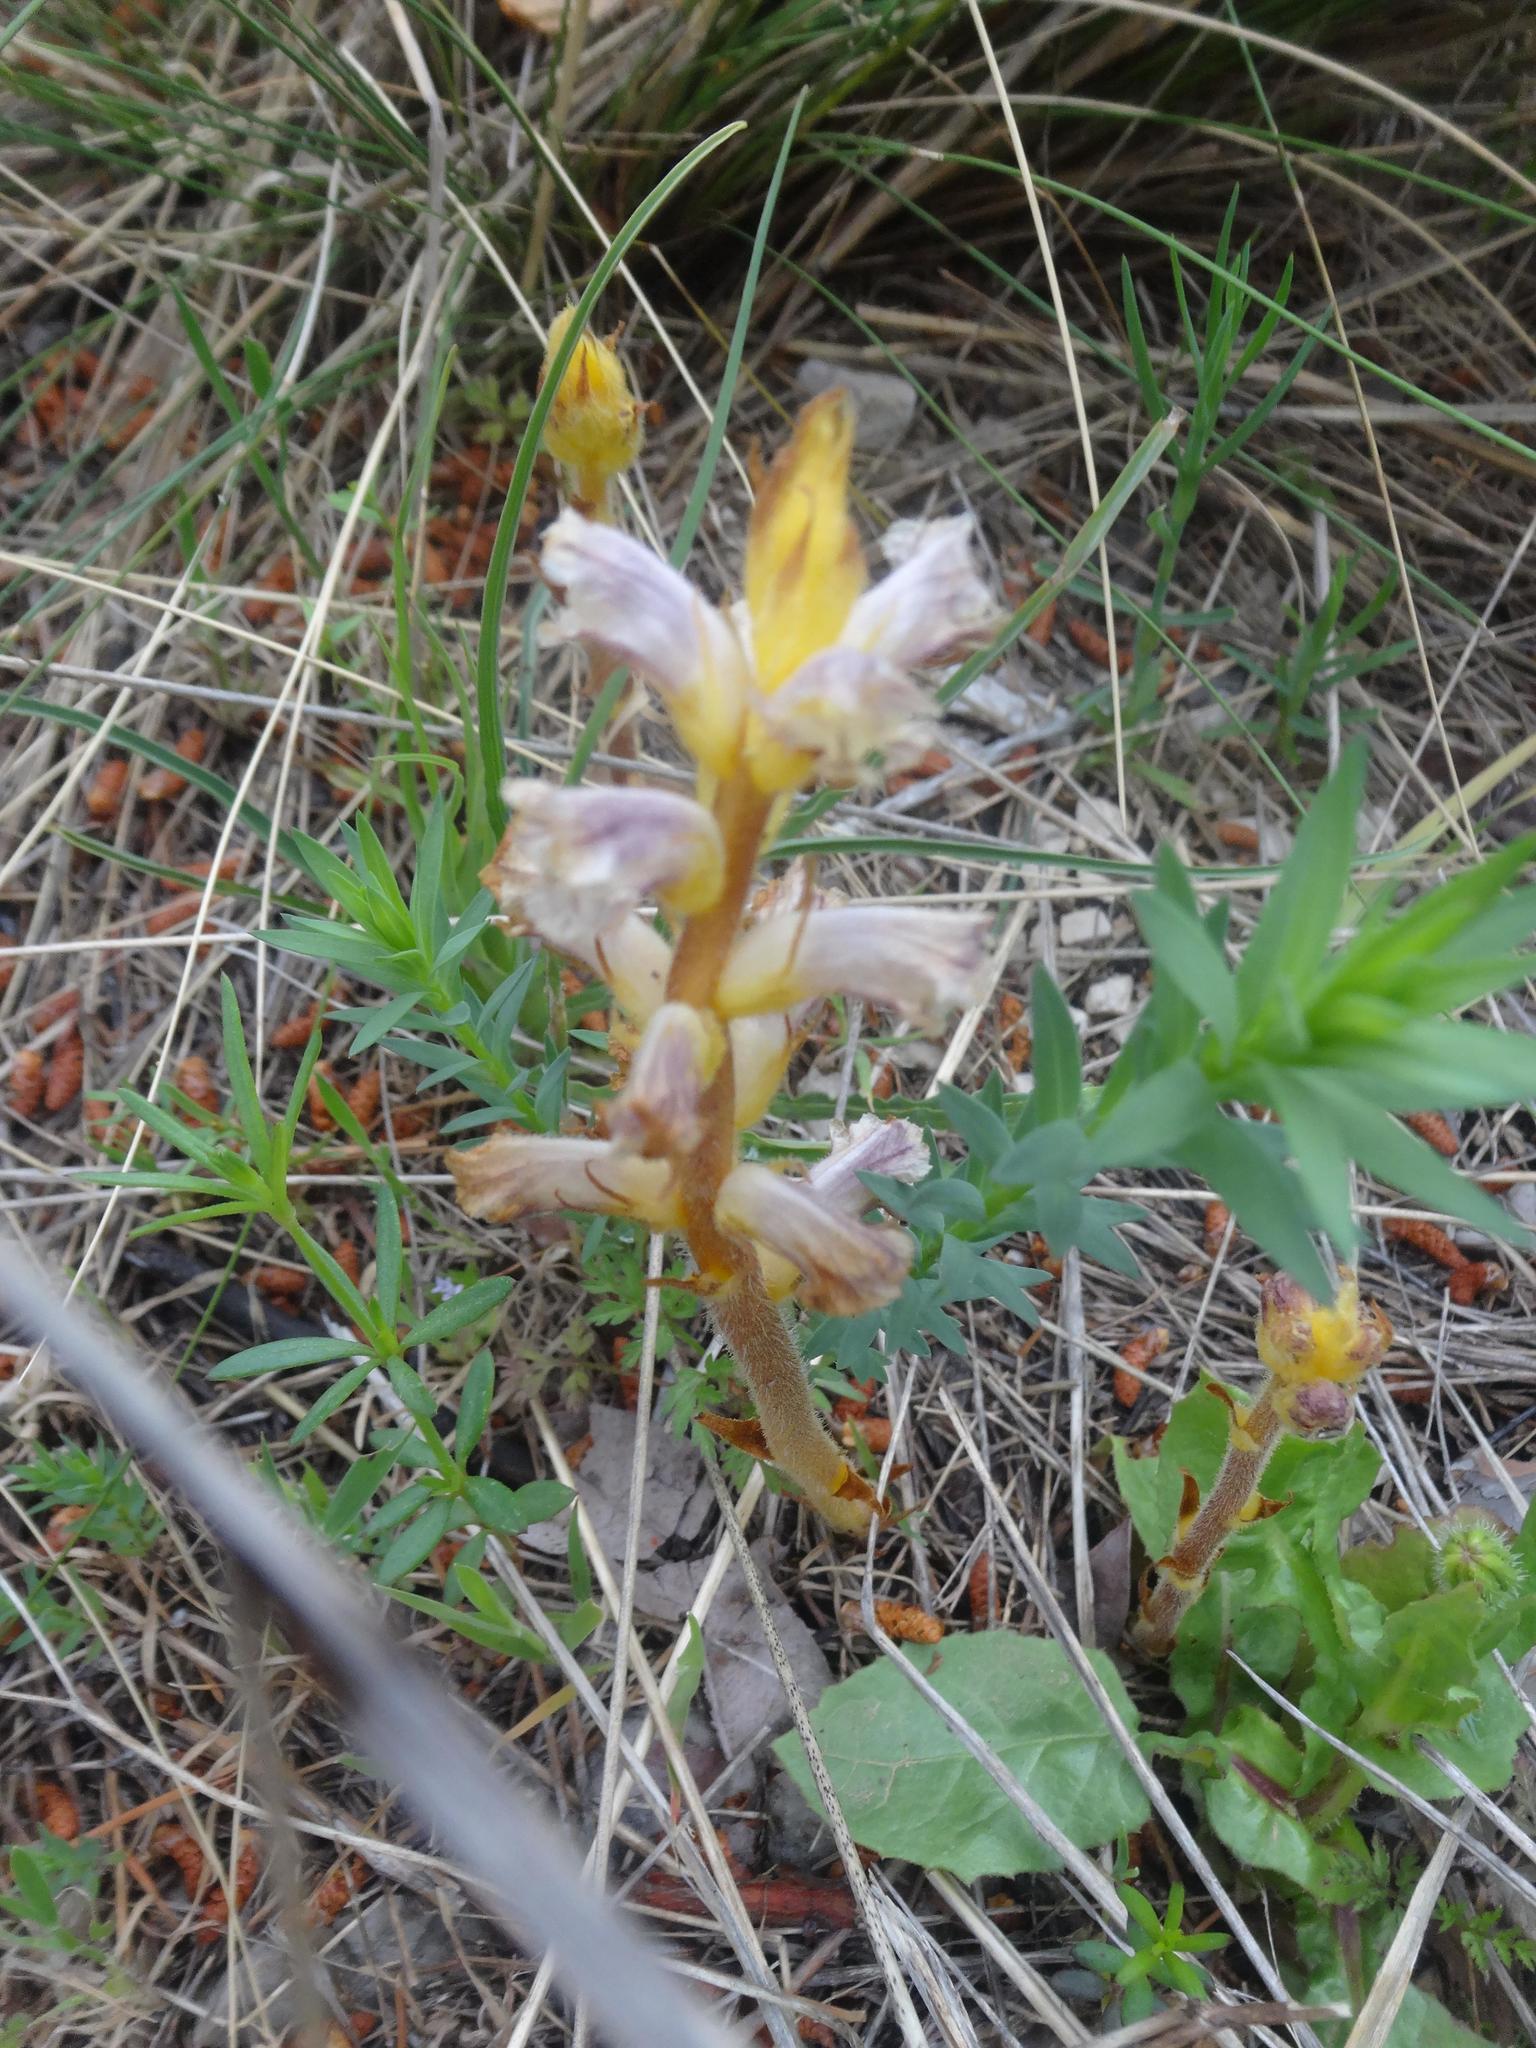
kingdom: Plantae
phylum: Tracheophyta
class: Magnoliopsida
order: Lamiales
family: Orobanchaceae
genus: Orobanche
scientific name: Orobanche minor
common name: Common broomrape
